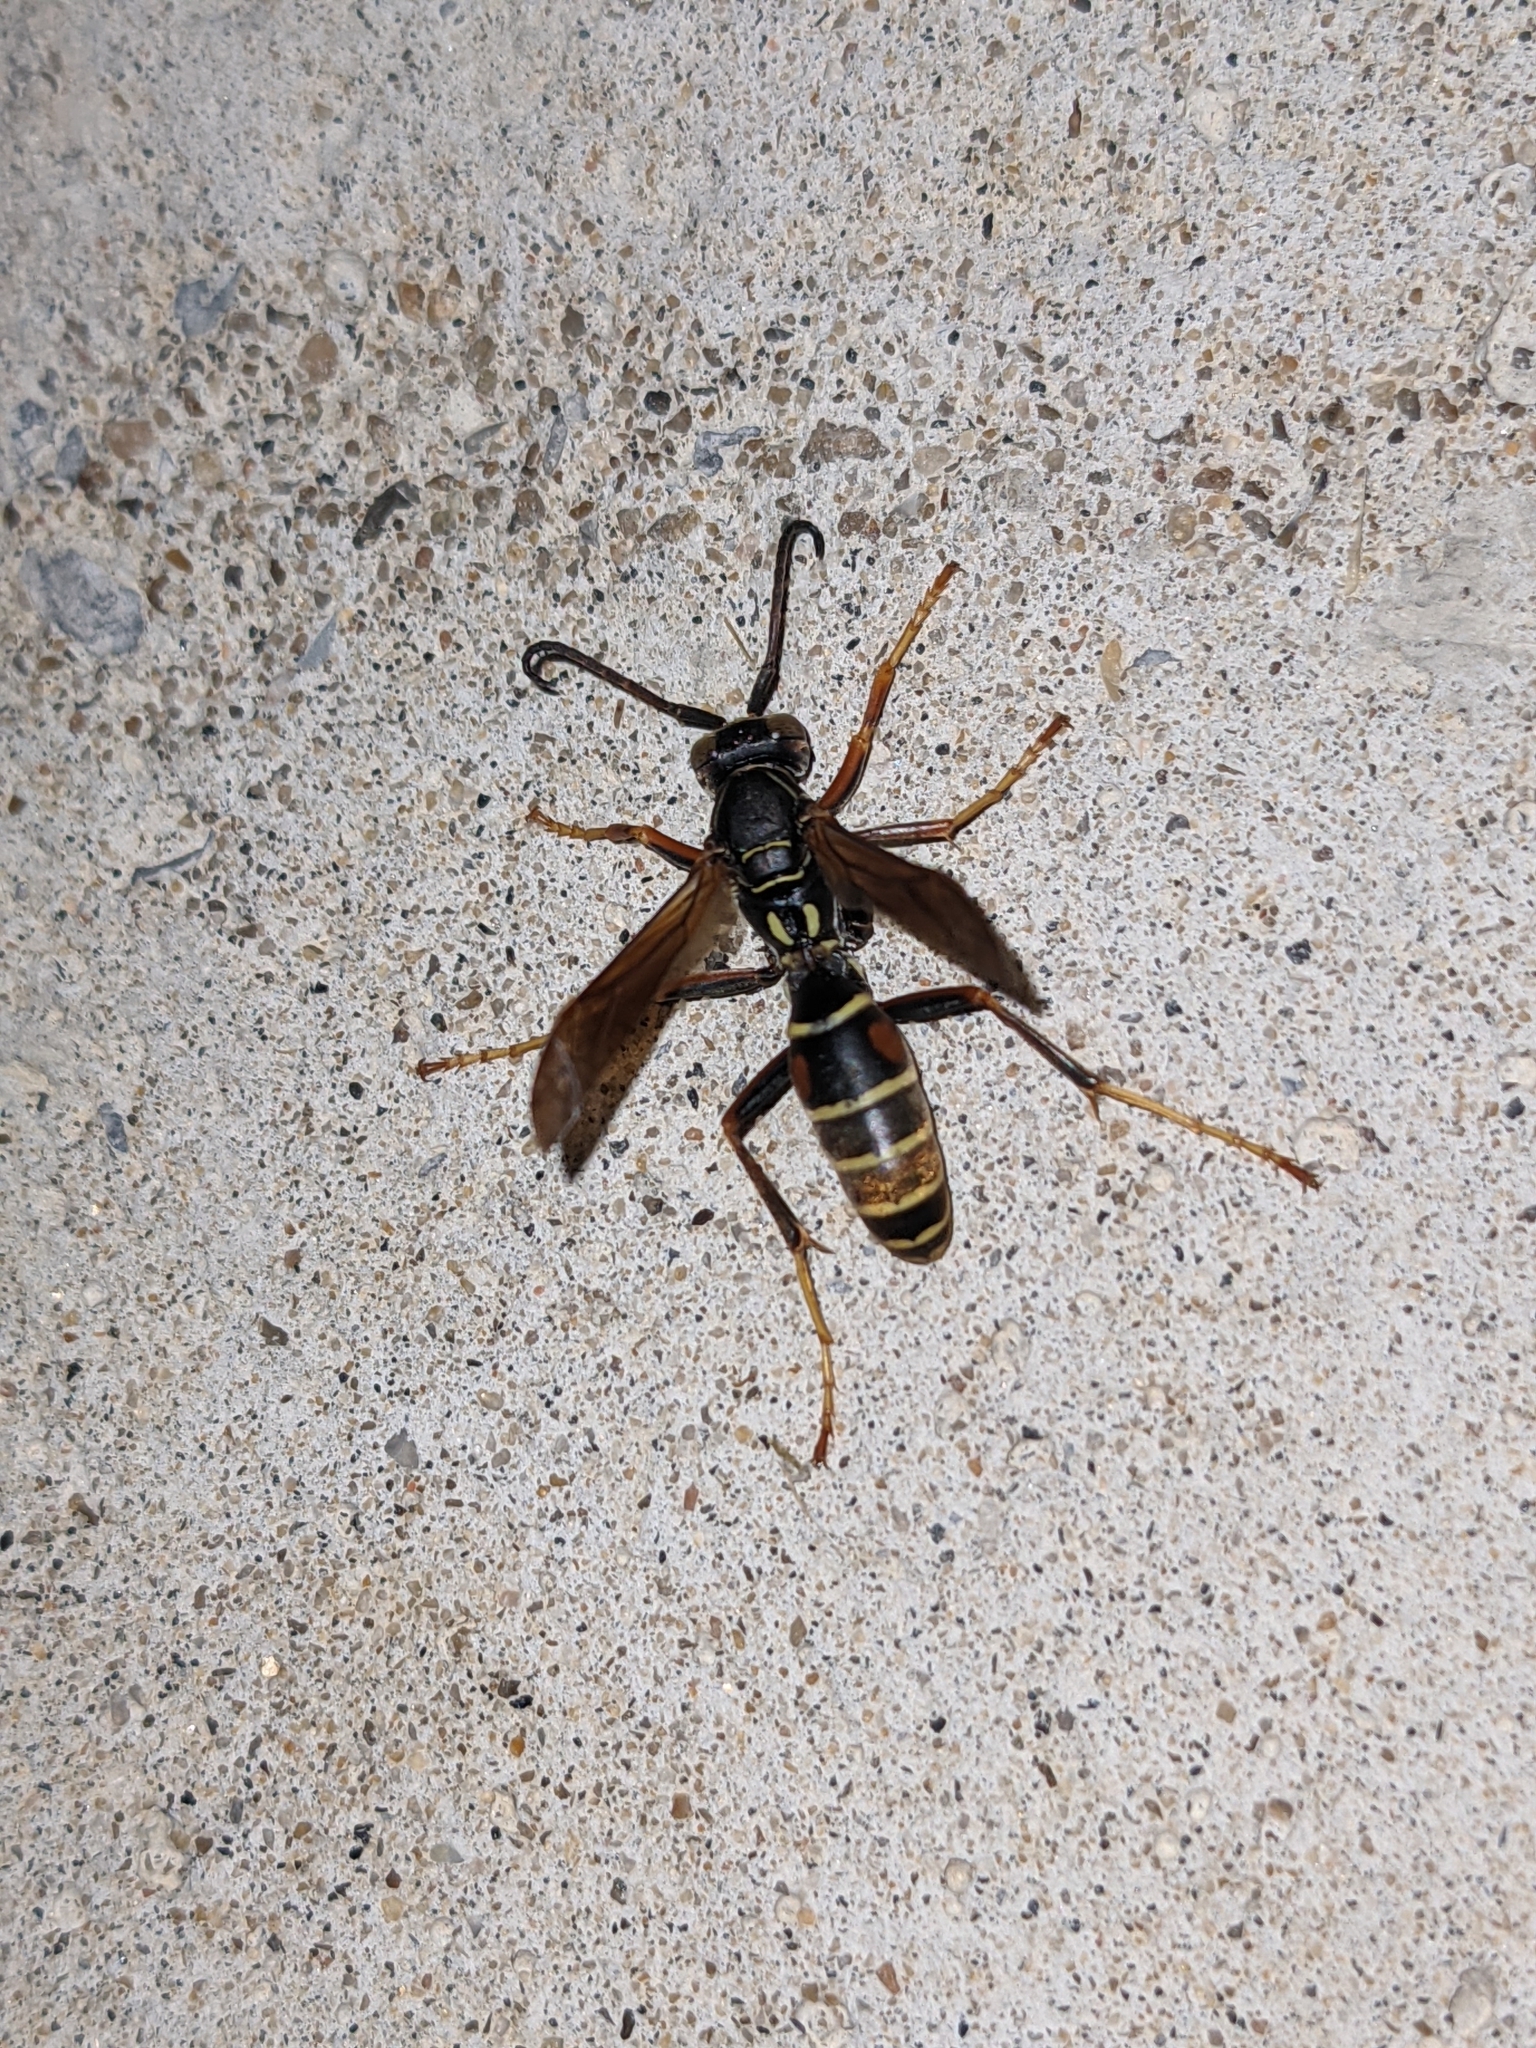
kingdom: Animalia
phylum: Arthropoda
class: Insecta
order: Hymenoptera
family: Eumenidae
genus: Polistes
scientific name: Polistes fuscatus
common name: Dark paper wasp
